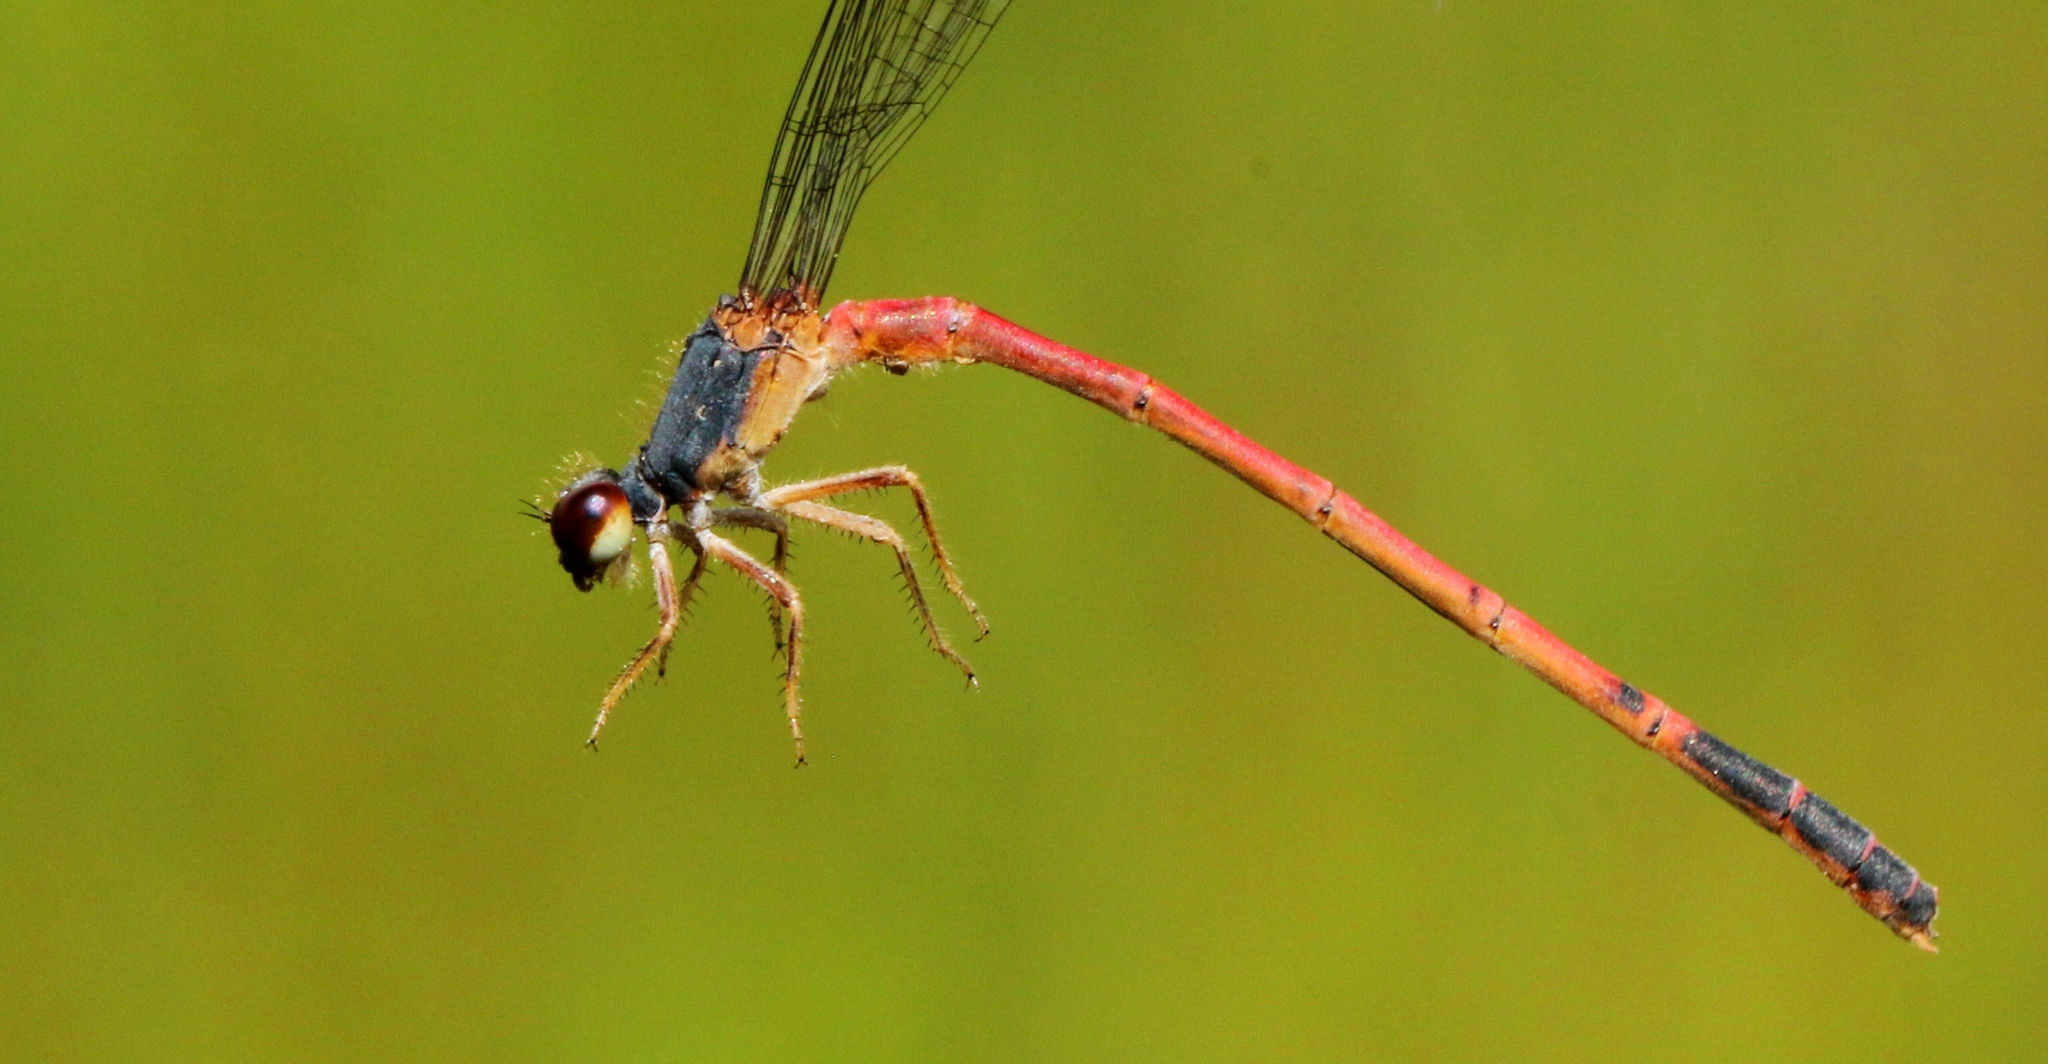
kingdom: Animalia
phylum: Arthropoda
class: Insecta
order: Odonata
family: Coenagrionidae
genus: Amphiagrion
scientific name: Amphiagrion saucium
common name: Eastern red damsel
